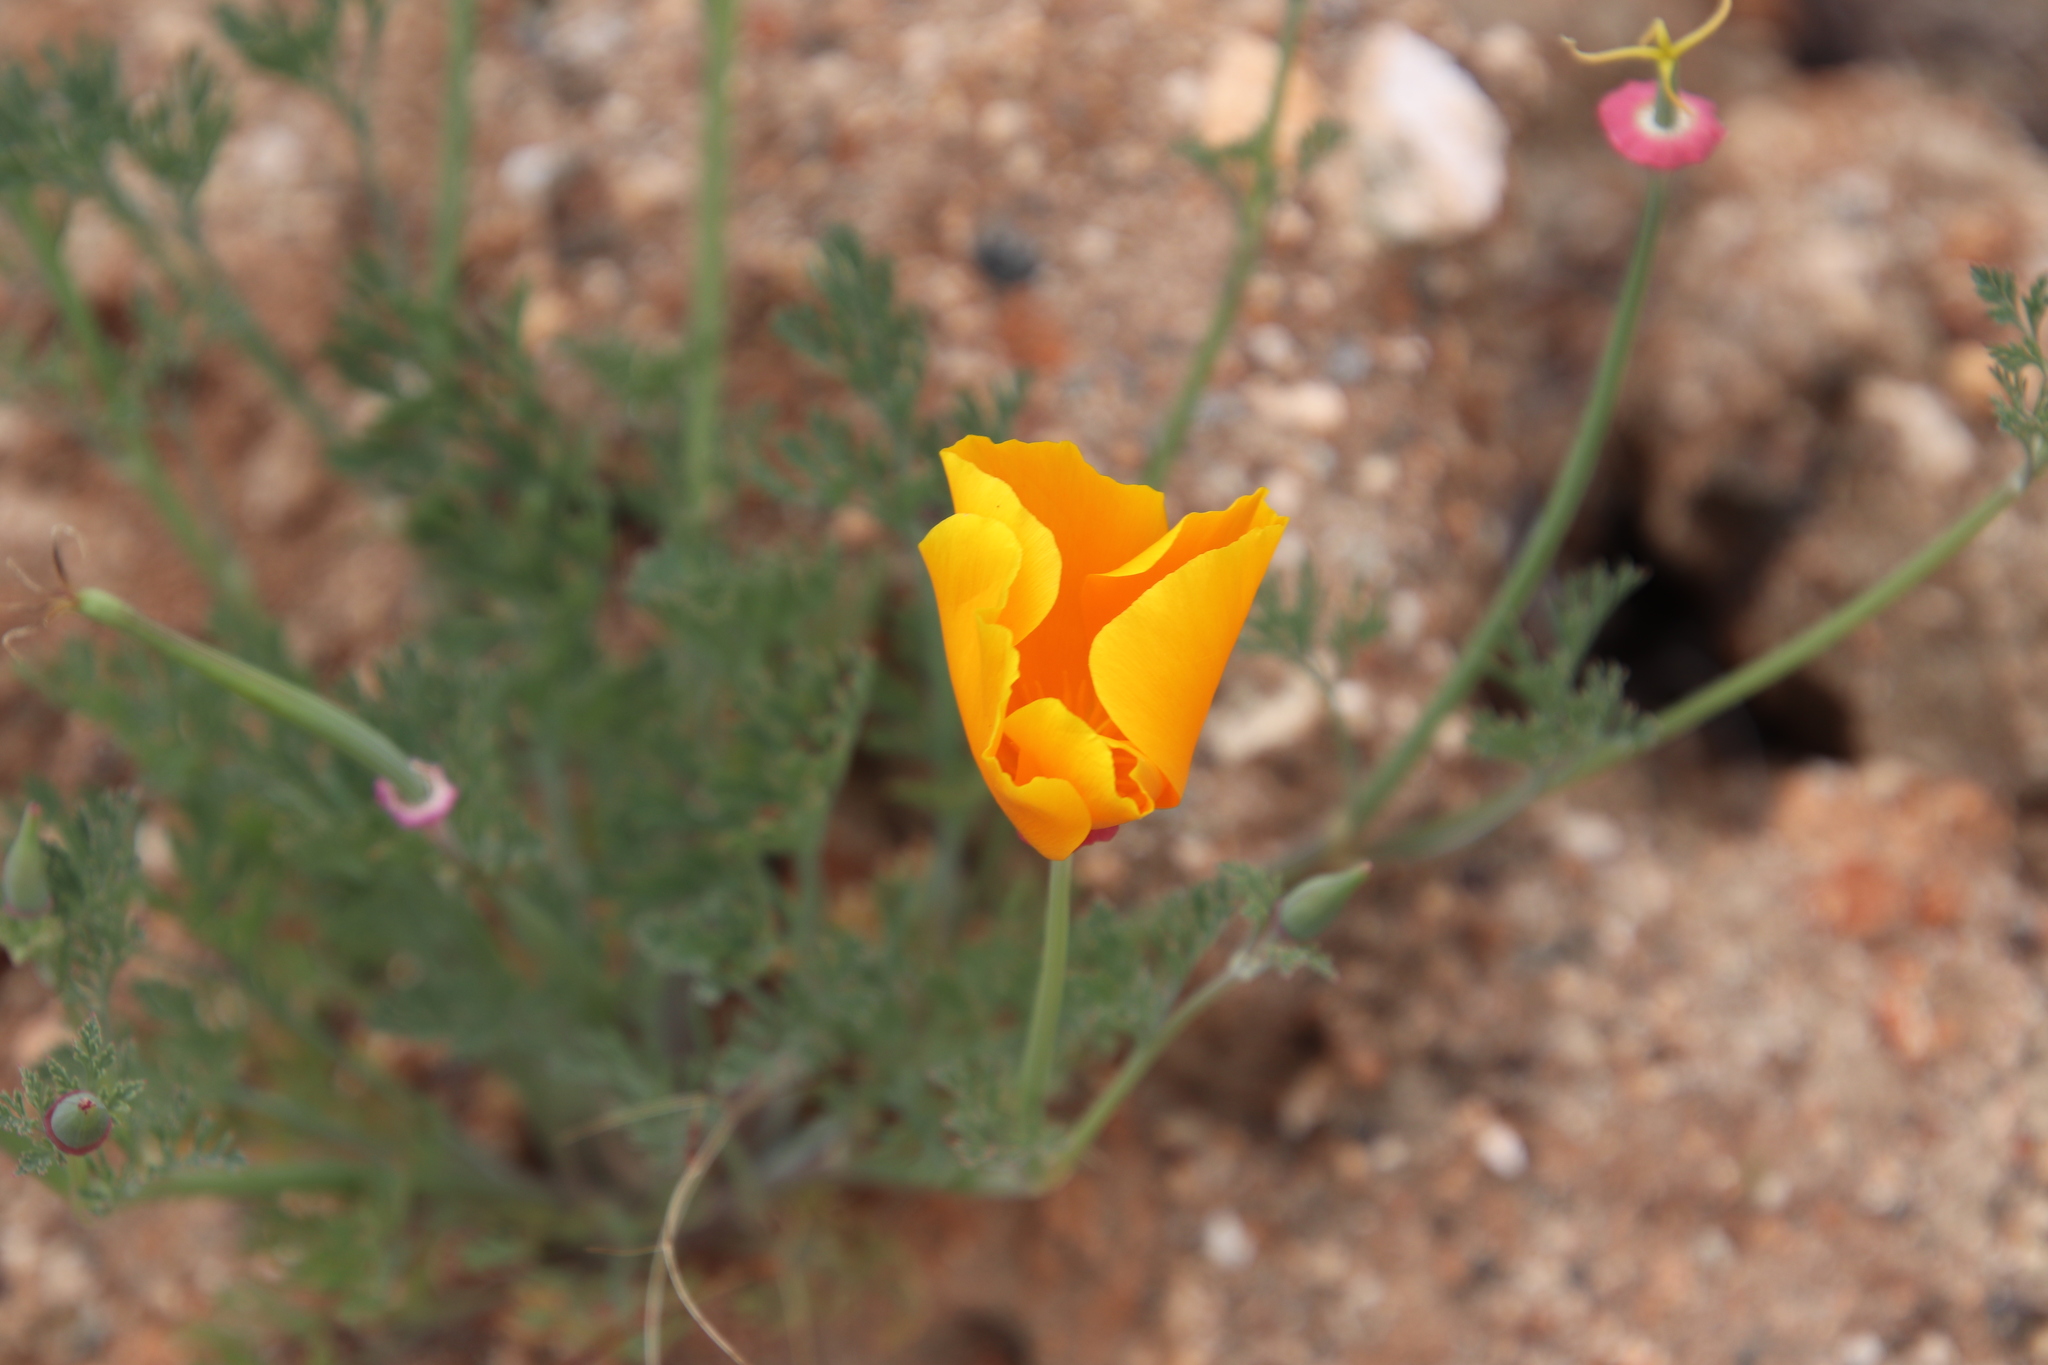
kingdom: Plantae
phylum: Tracheophyta
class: Magnoliopsida
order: Ranunculales
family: Papaveraceae
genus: Eschscholzia
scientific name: Eschscholzia californica
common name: California poppy
